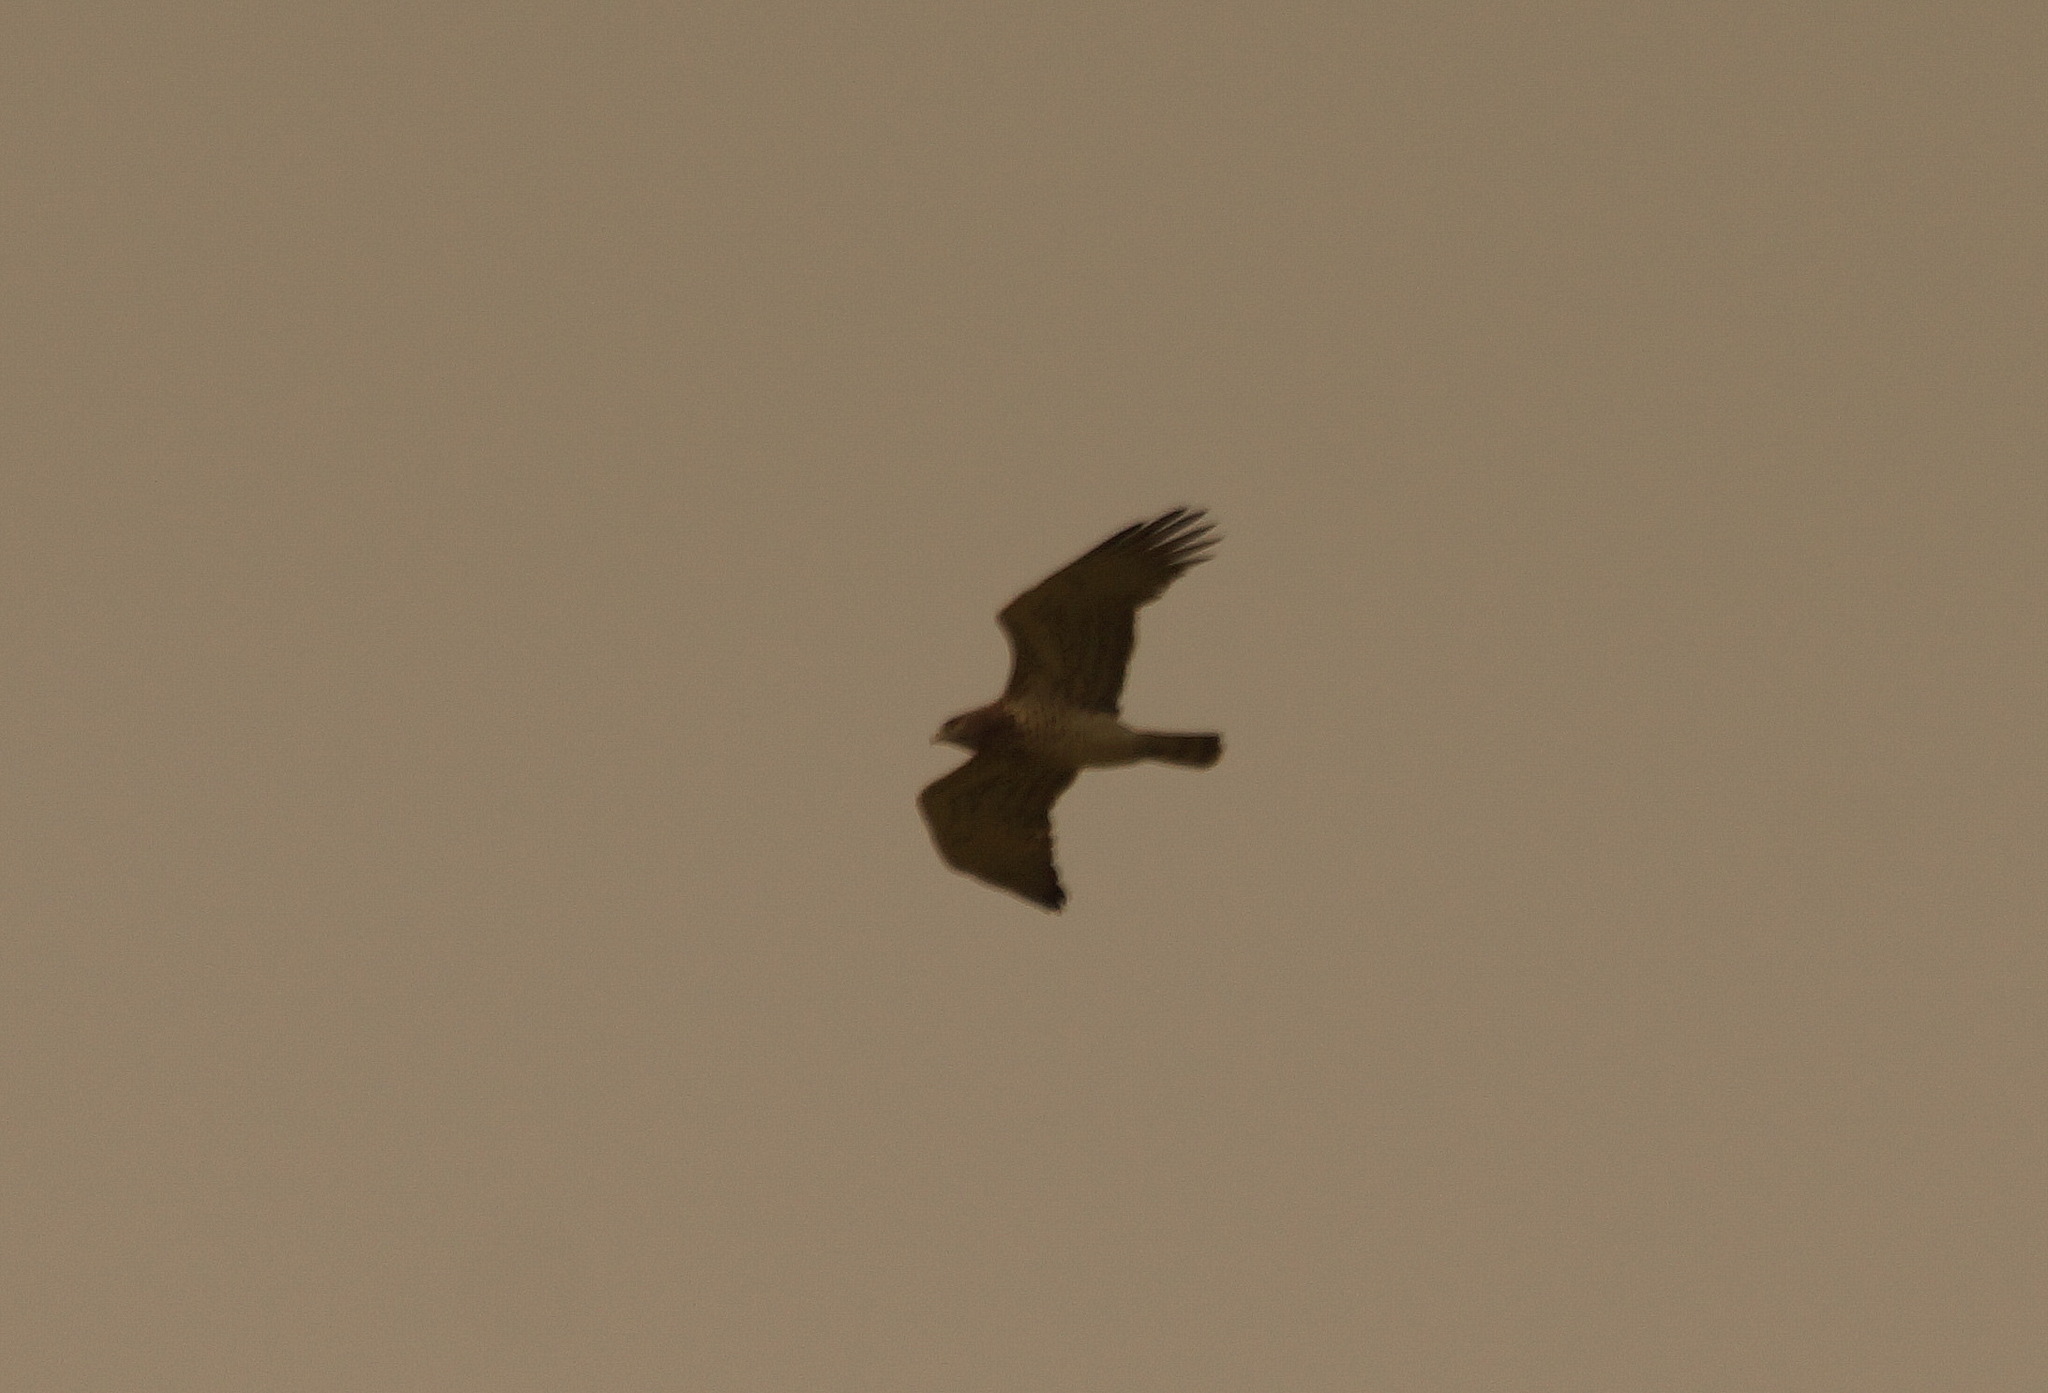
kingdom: Animalia
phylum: Chordata
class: Aves
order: Accipitriformes
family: Accipitridae
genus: Circaetus
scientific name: Circaetus gallicus
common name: Short-toed snake eagle
